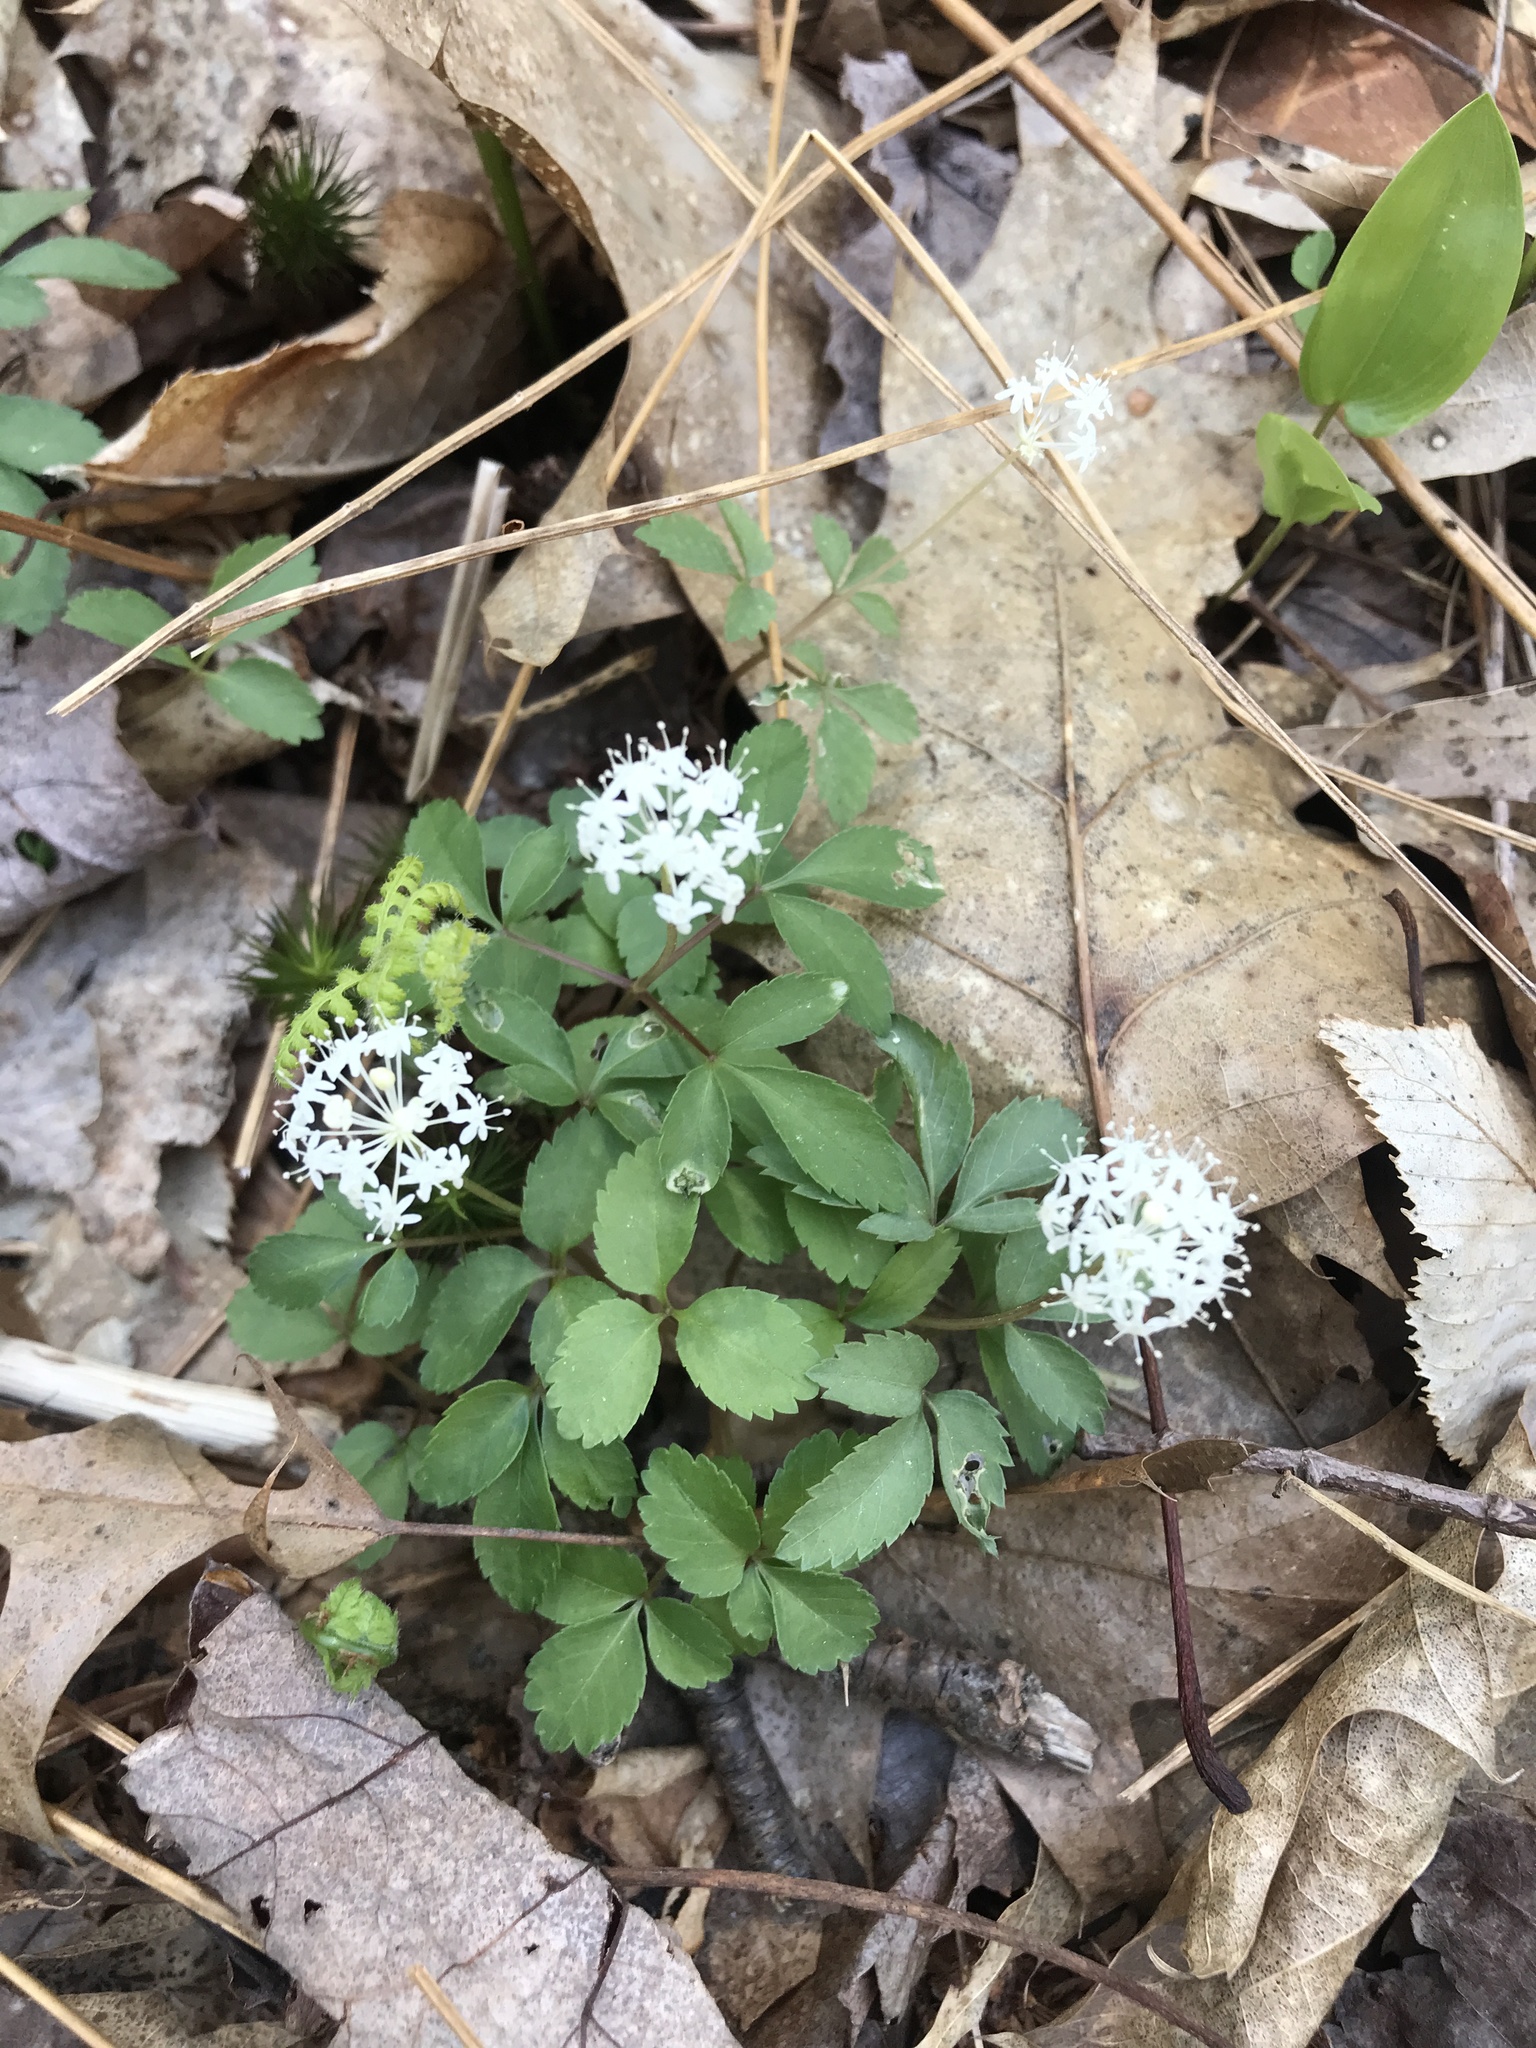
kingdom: Plantae
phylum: Tracheophyta
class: Magnoliopsida
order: Apiales
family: Araliaceae
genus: Panax
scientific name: Panax trifolius
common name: Dwarf ginseng
